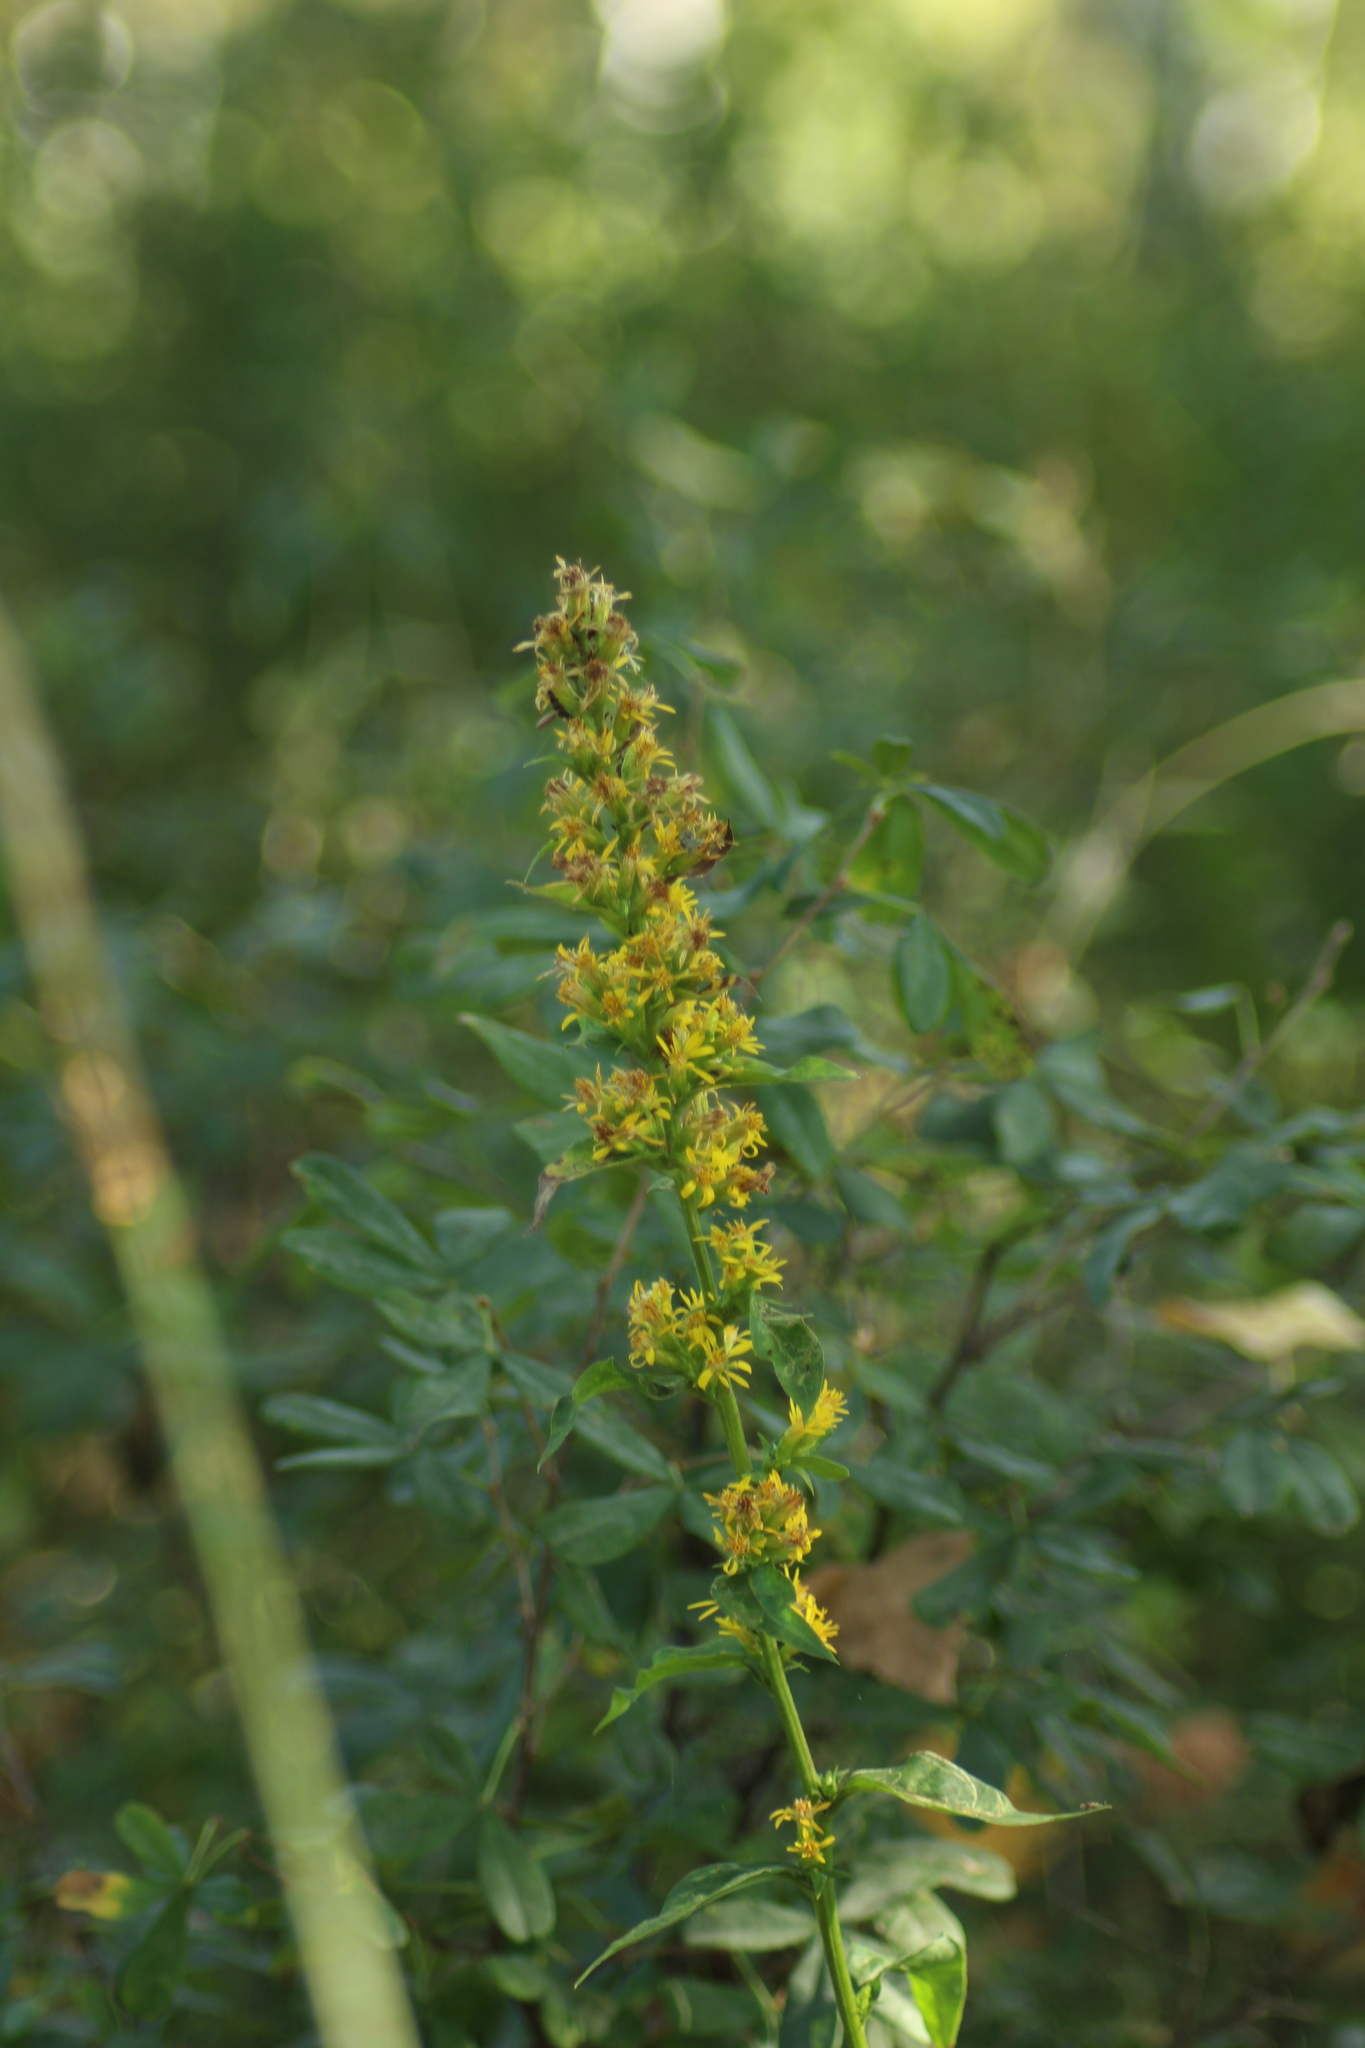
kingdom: Plantae
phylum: Tracheophyta
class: Magnoliopsida
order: Asterales
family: Asteraceae
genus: Solidago
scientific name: Solidago virgaurea
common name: Goldenrod
